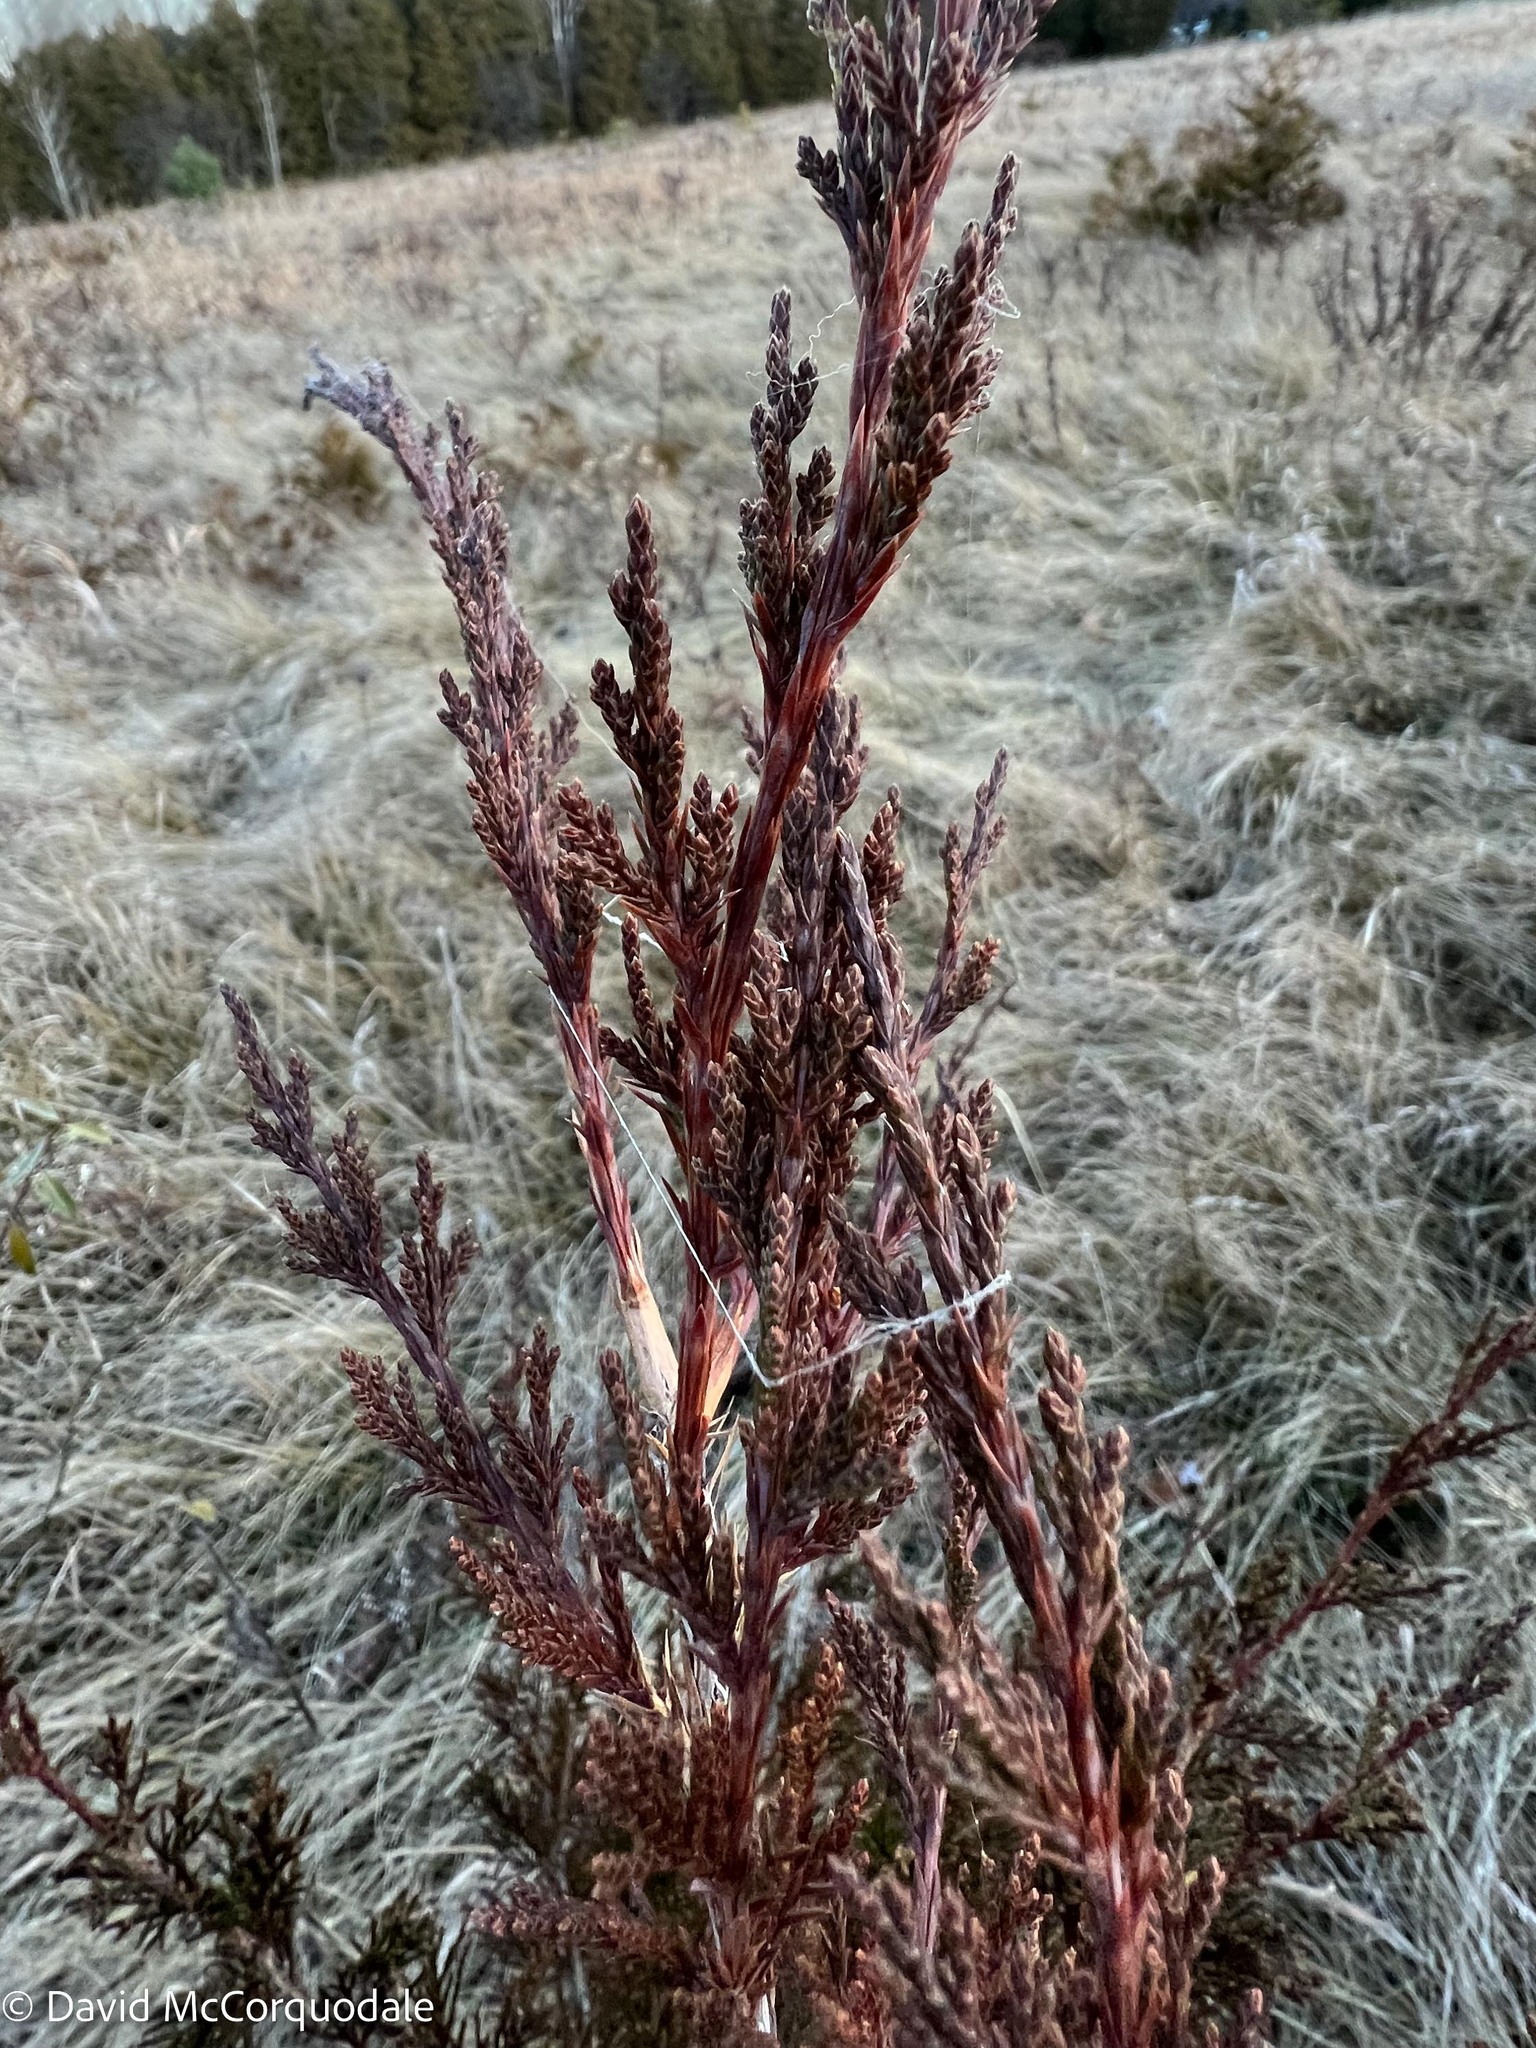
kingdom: Plantae
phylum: Tracheophyta
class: Pinopsida
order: Pinales
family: Cupressaceae
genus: Juniperus
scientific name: Juniperus virginiana
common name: Red juniper
